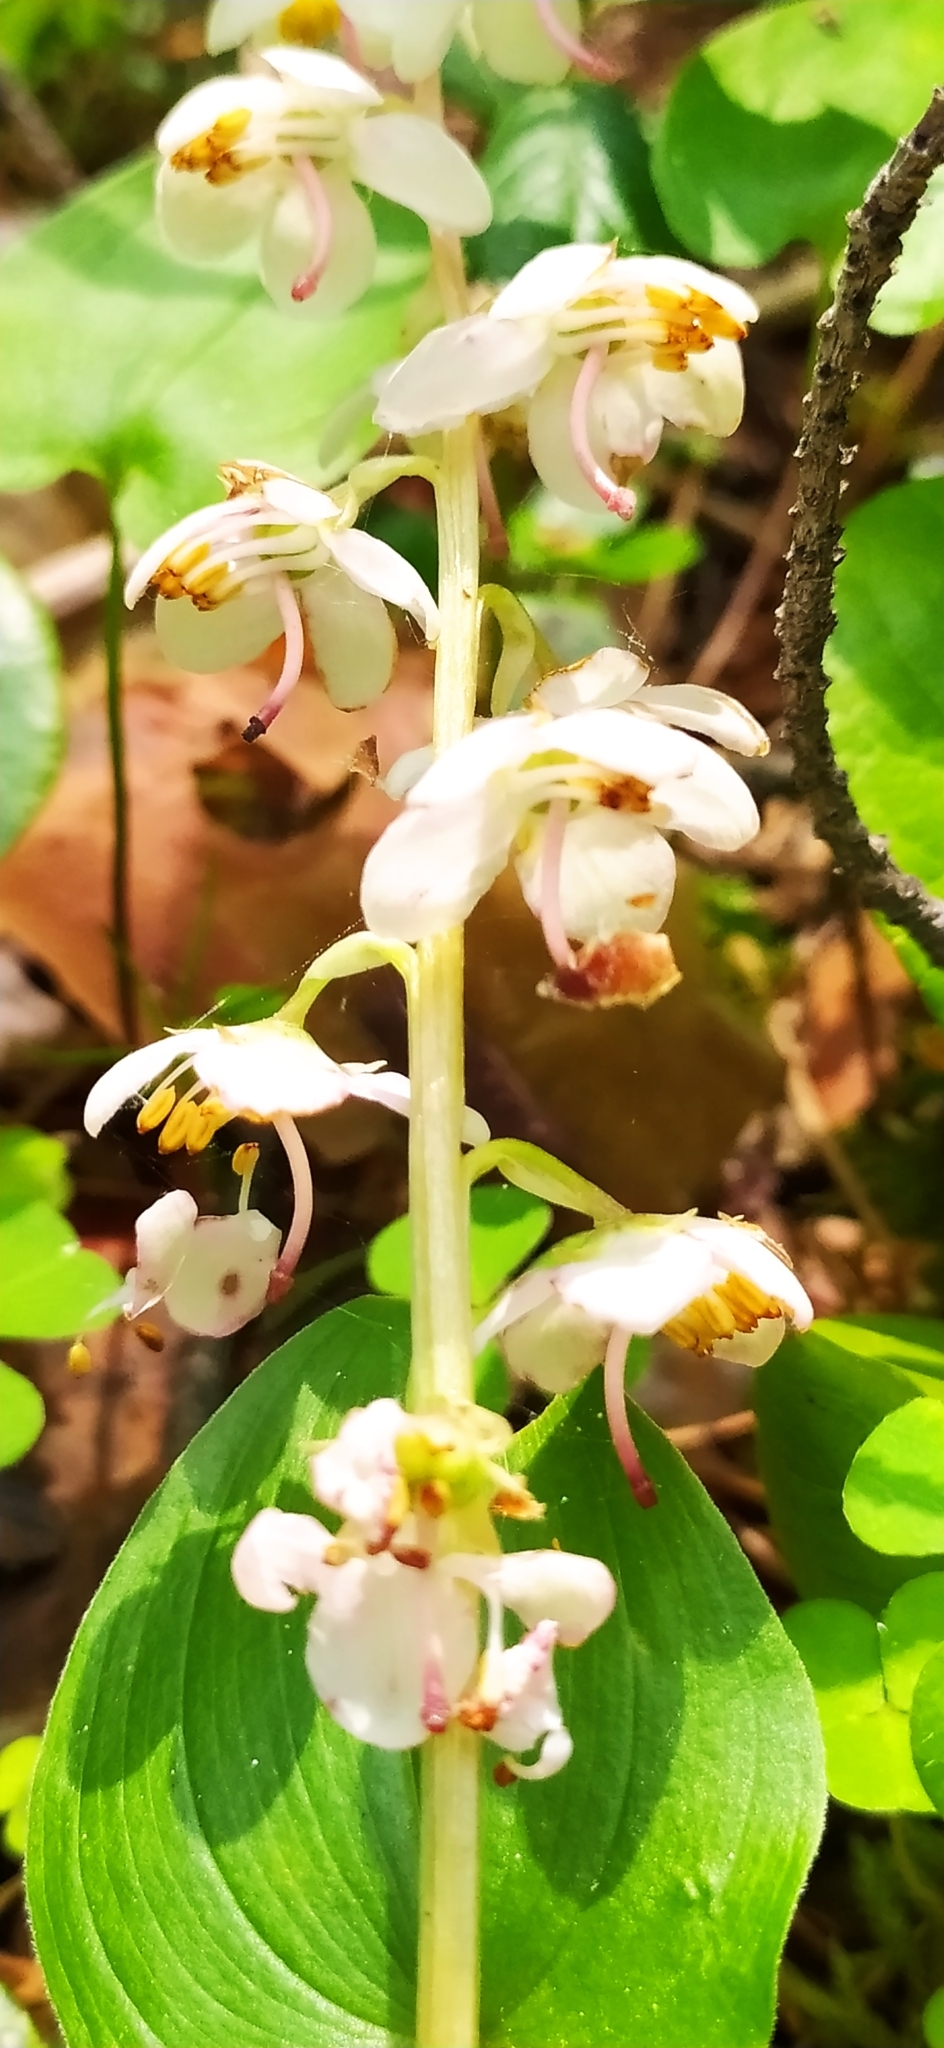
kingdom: Plantae
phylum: Tracheophyta
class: Magnoliopsida
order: Ericales
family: Ericaceae
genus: Pyrola
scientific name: Pyrola rotundifolia
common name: Round-leaved wintergreen
